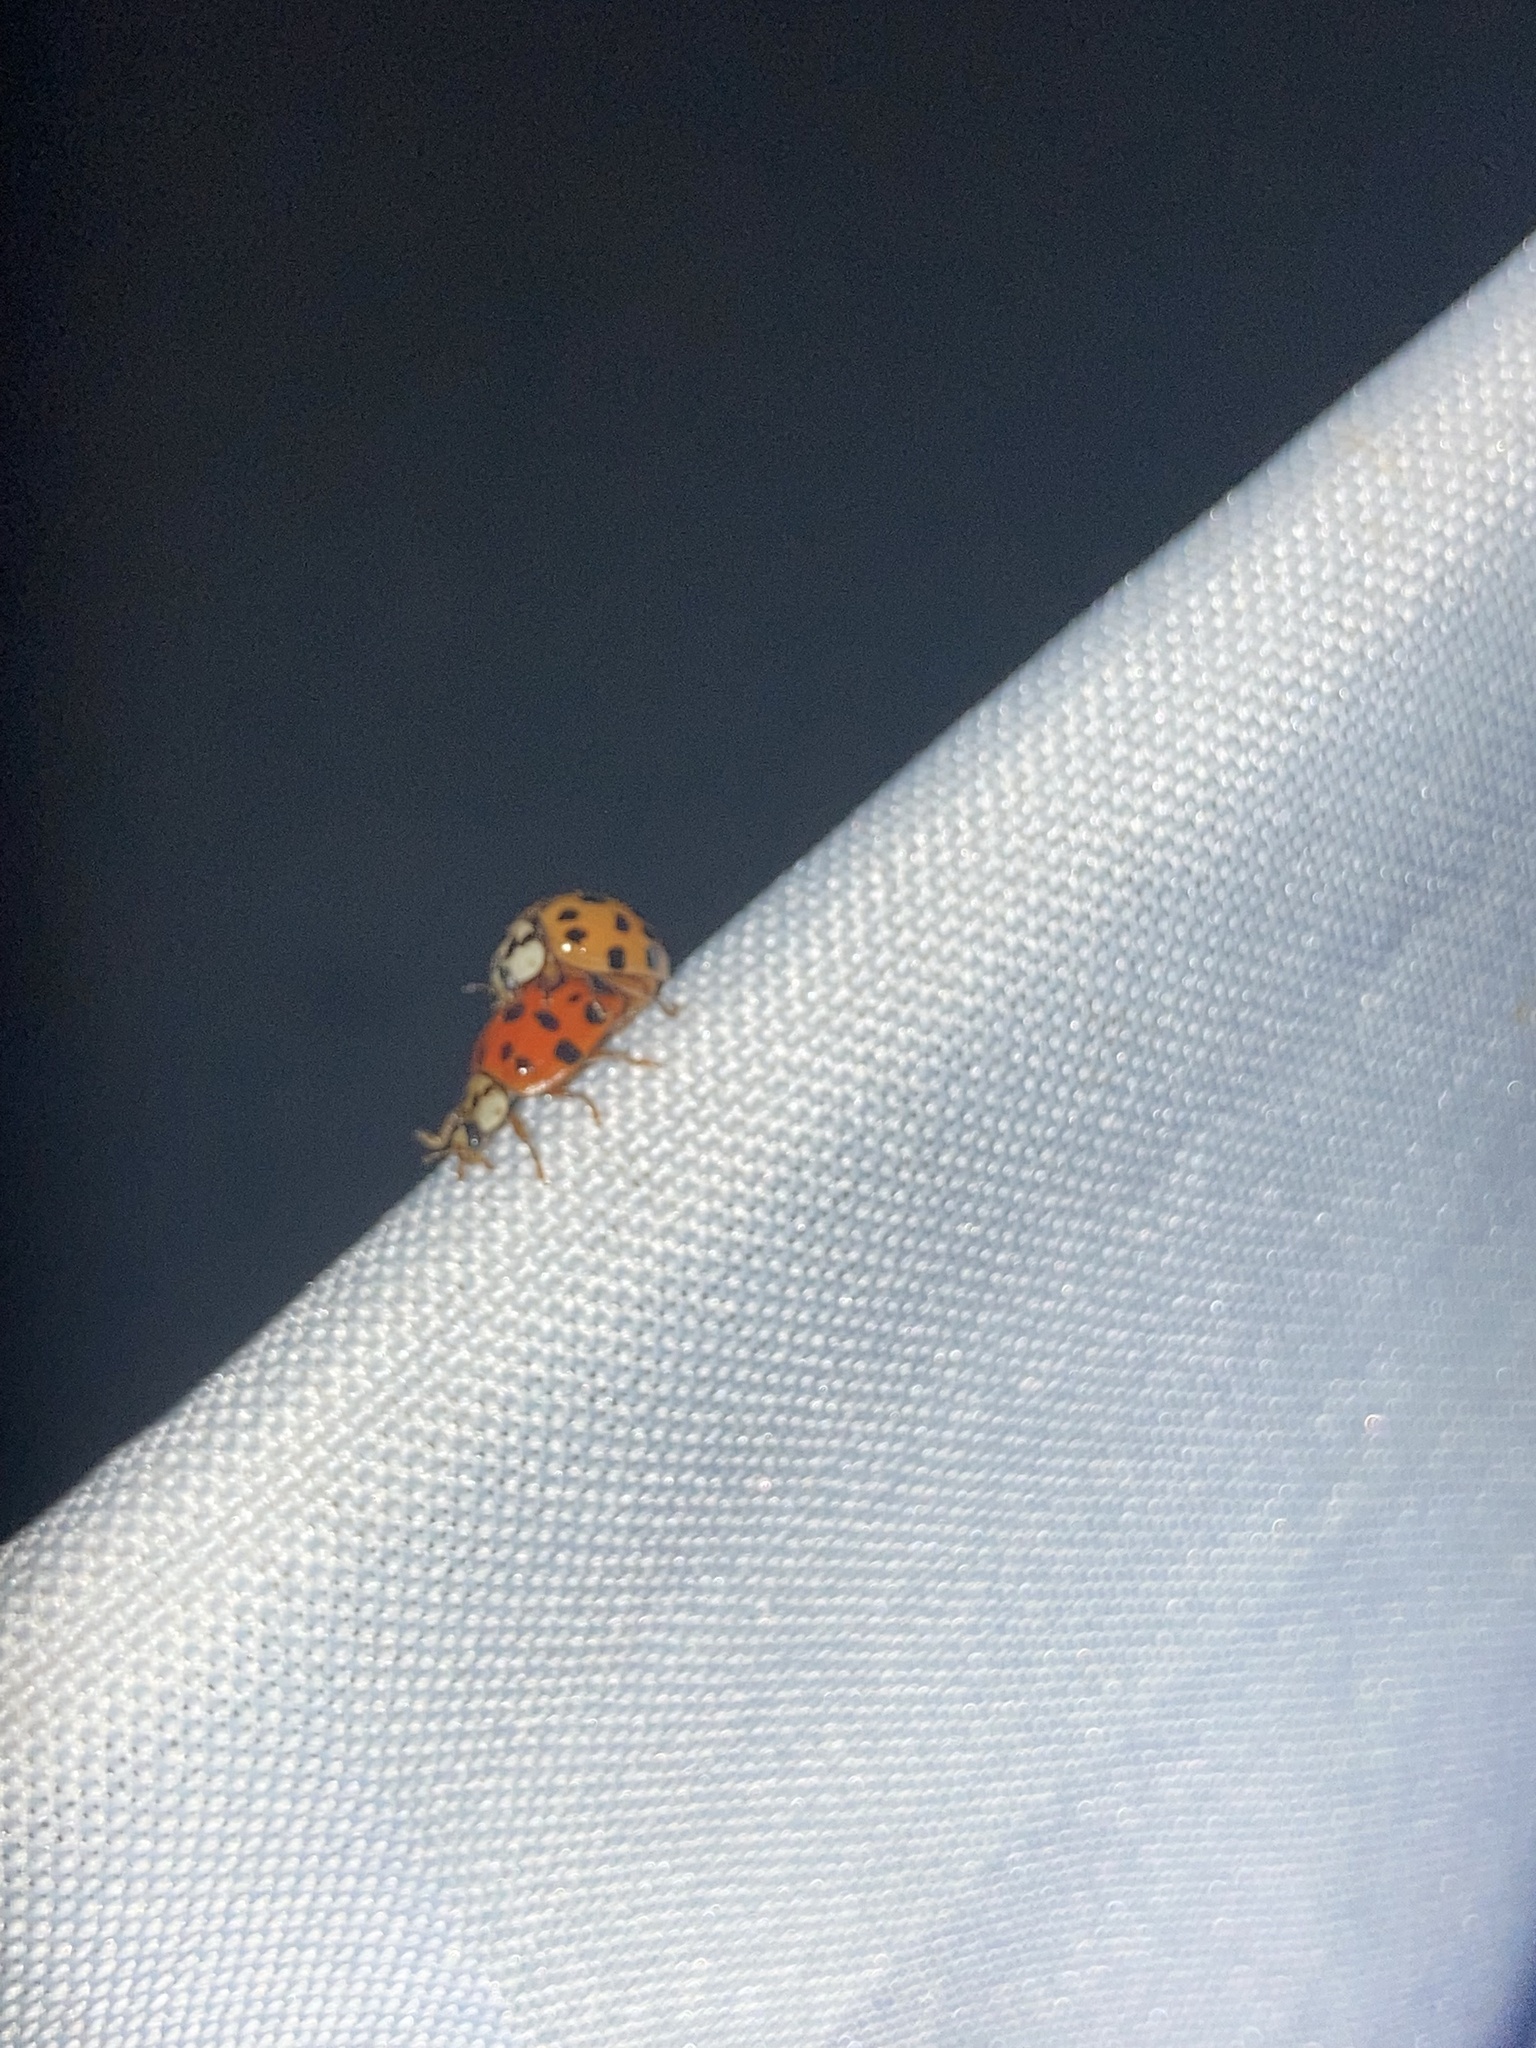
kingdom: Animalia
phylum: Arthropoda
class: Insecta
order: Coleoptera
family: Coccinellidae
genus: Harmonia
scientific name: Harmonia axyridis
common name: Harlequin ladybird
